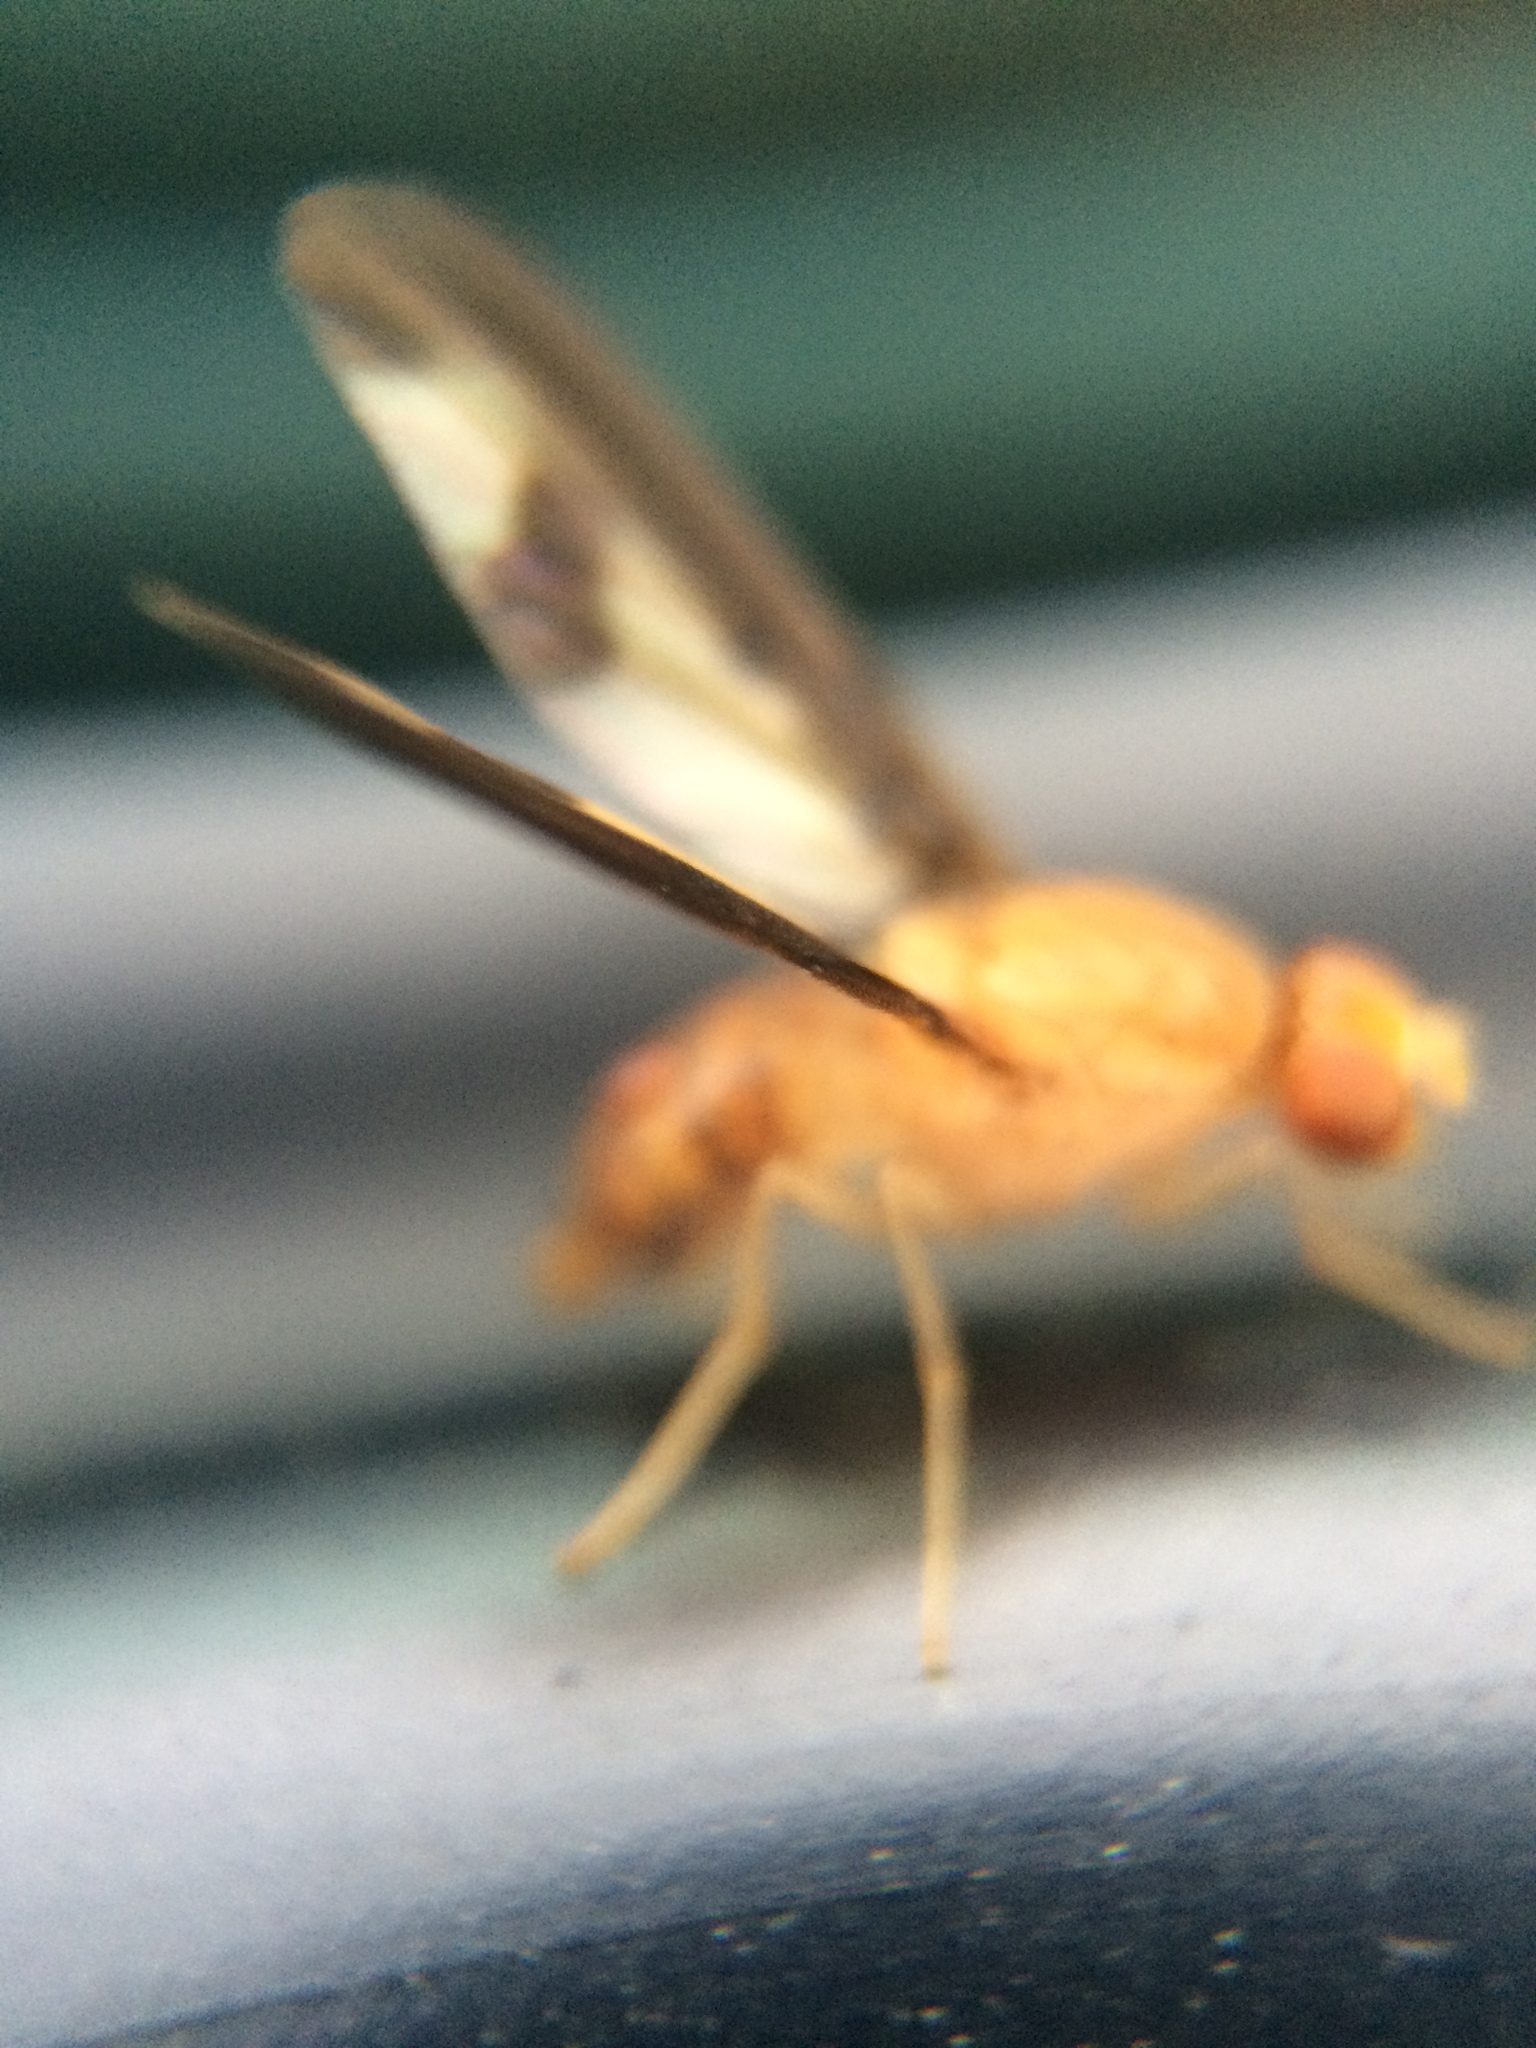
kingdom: Animalia
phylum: Arthropoda
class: Insecta
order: Diptera
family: Pallopteridae
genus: Toxonevra
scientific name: Toxonevra superba
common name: Antlered flutter fly
